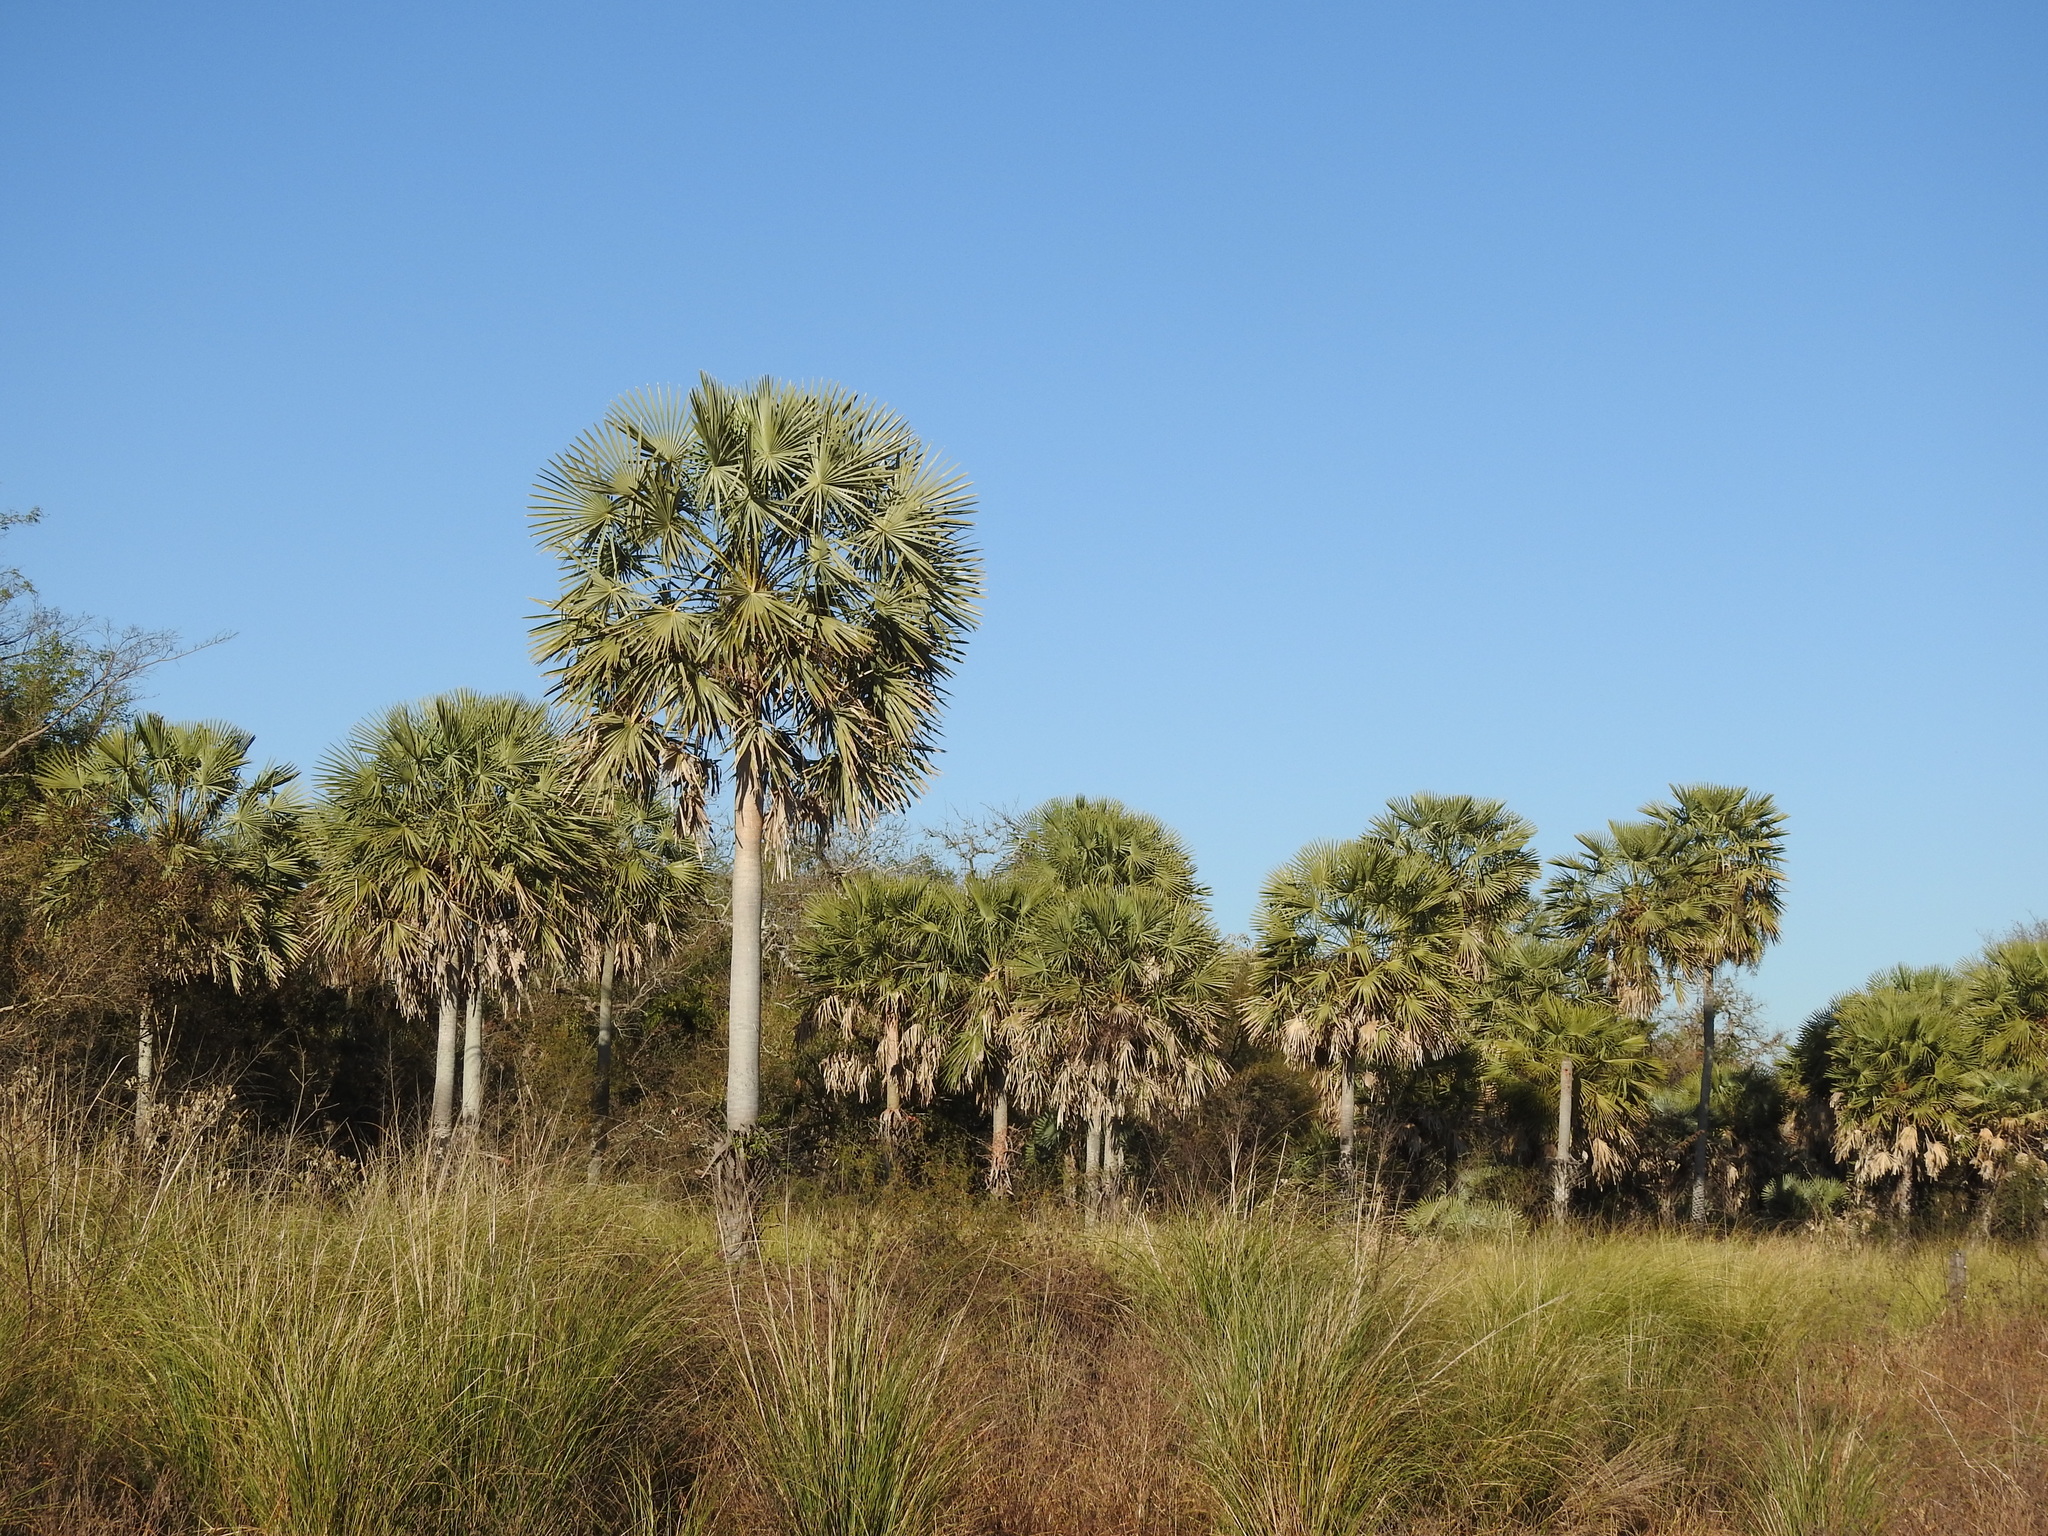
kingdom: Plantae
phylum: Tracheophyta
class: Liliopsida
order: Arecales
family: Arecaceae
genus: Copernicia
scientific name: Copernicia alba
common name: Caranday palm
